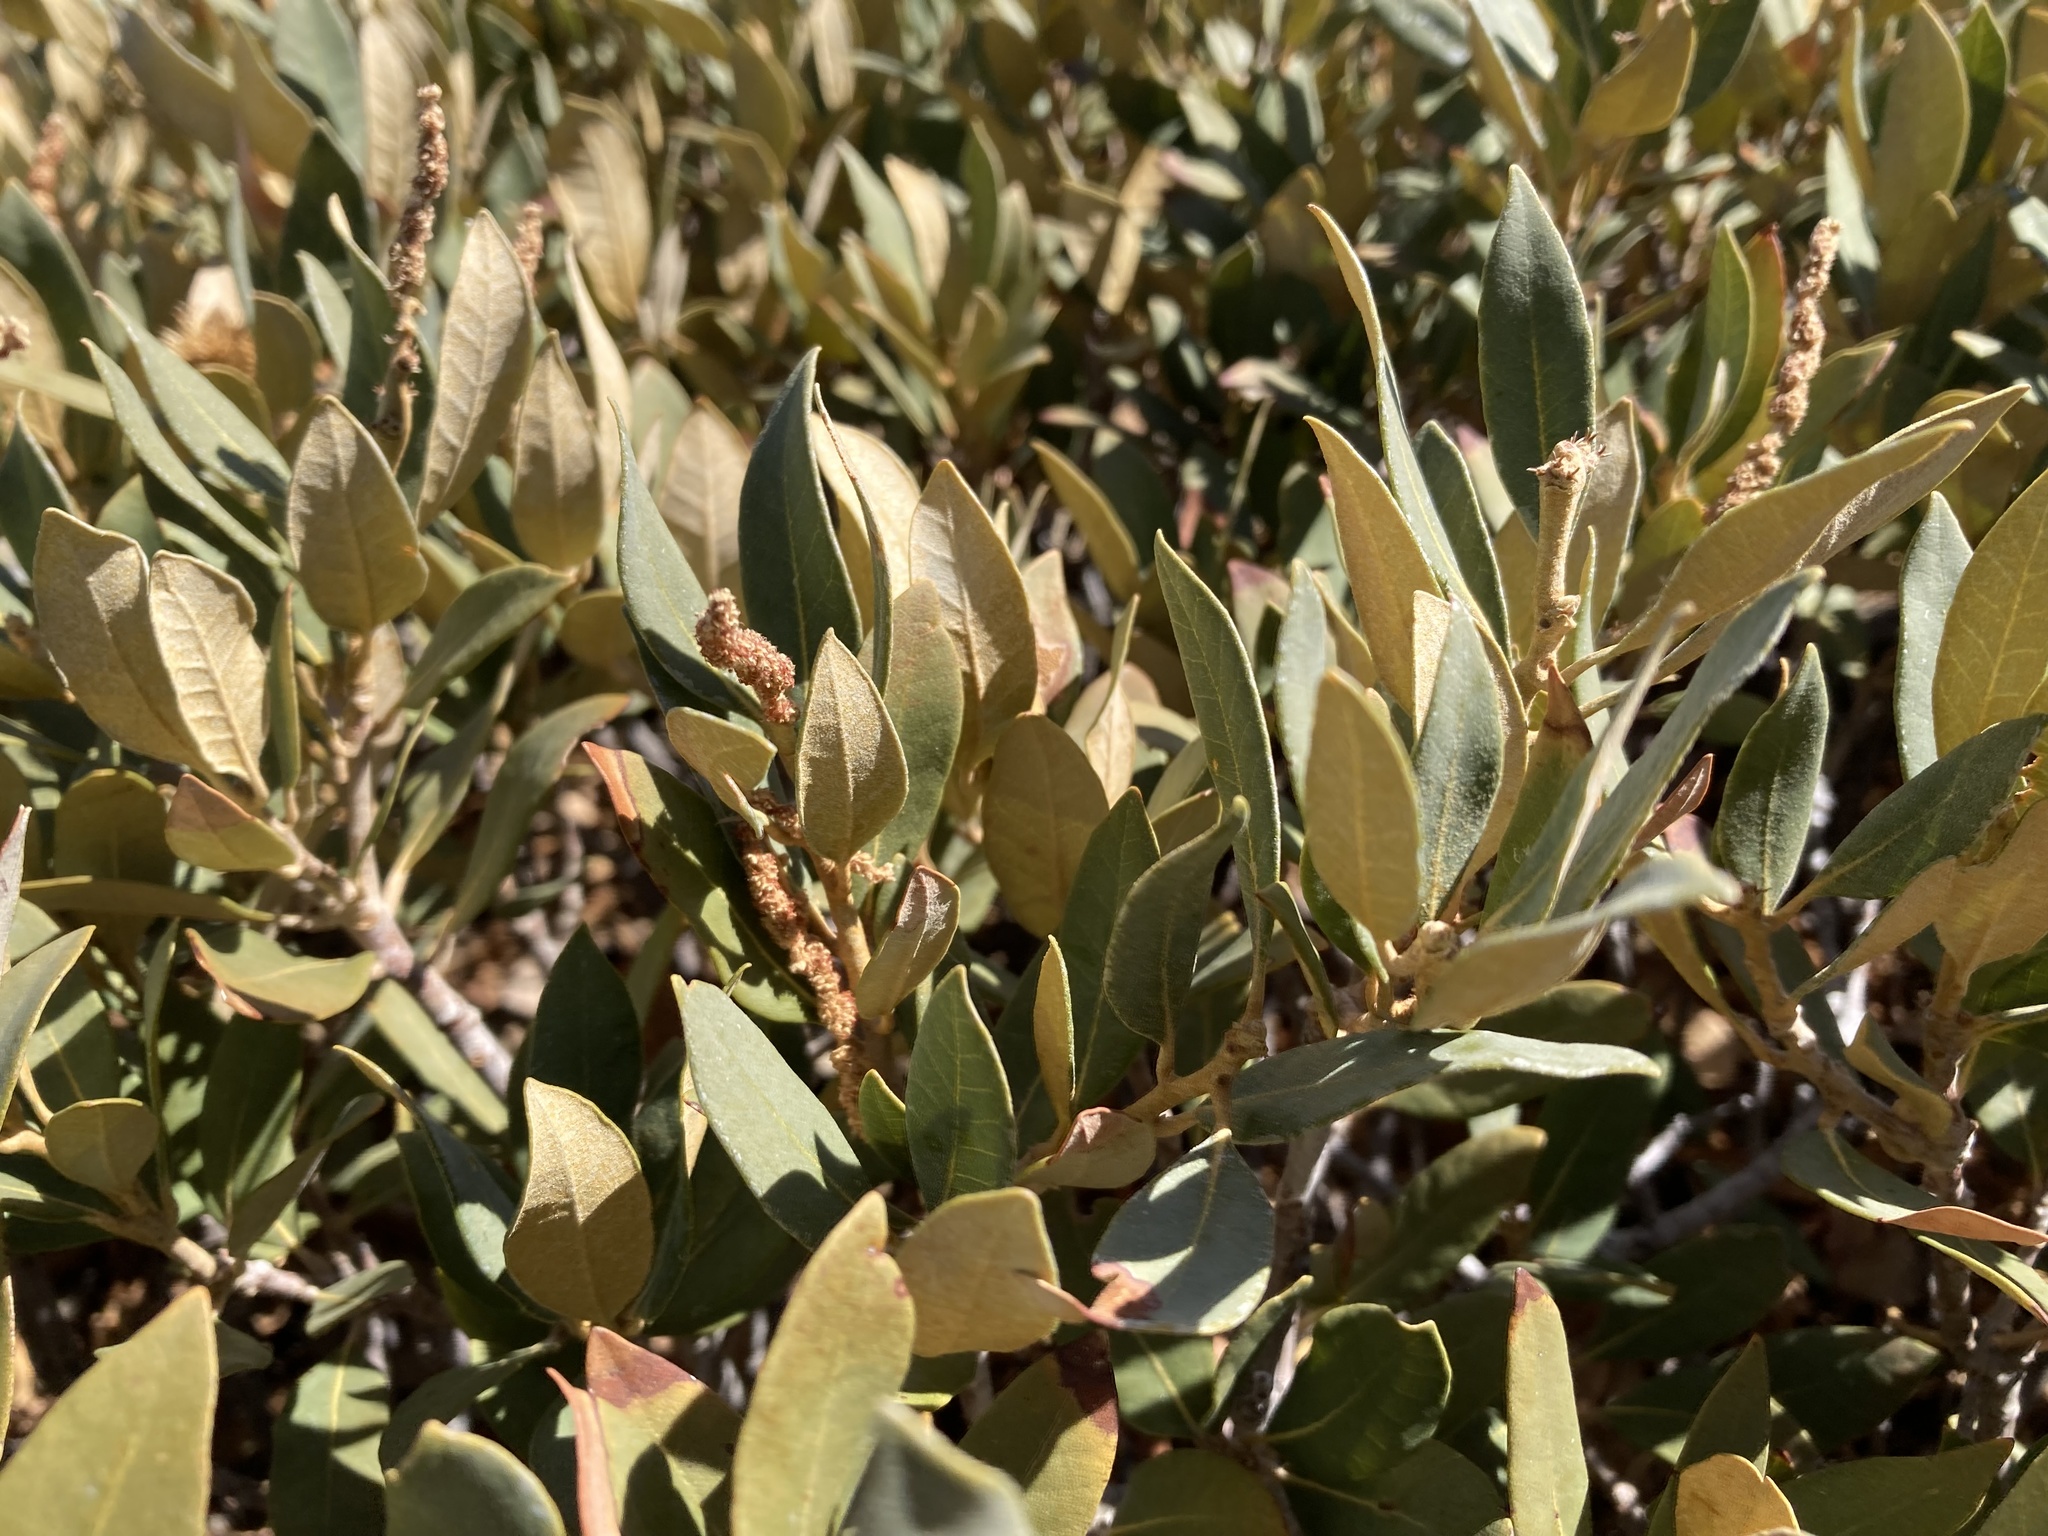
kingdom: Plantae
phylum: Tracheophyta
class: Magnoliopsida
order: Fagales
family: Fagaceae
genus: Chrysolepis
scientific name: Chrysolepis sempervirens
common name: Bush chinquapin
